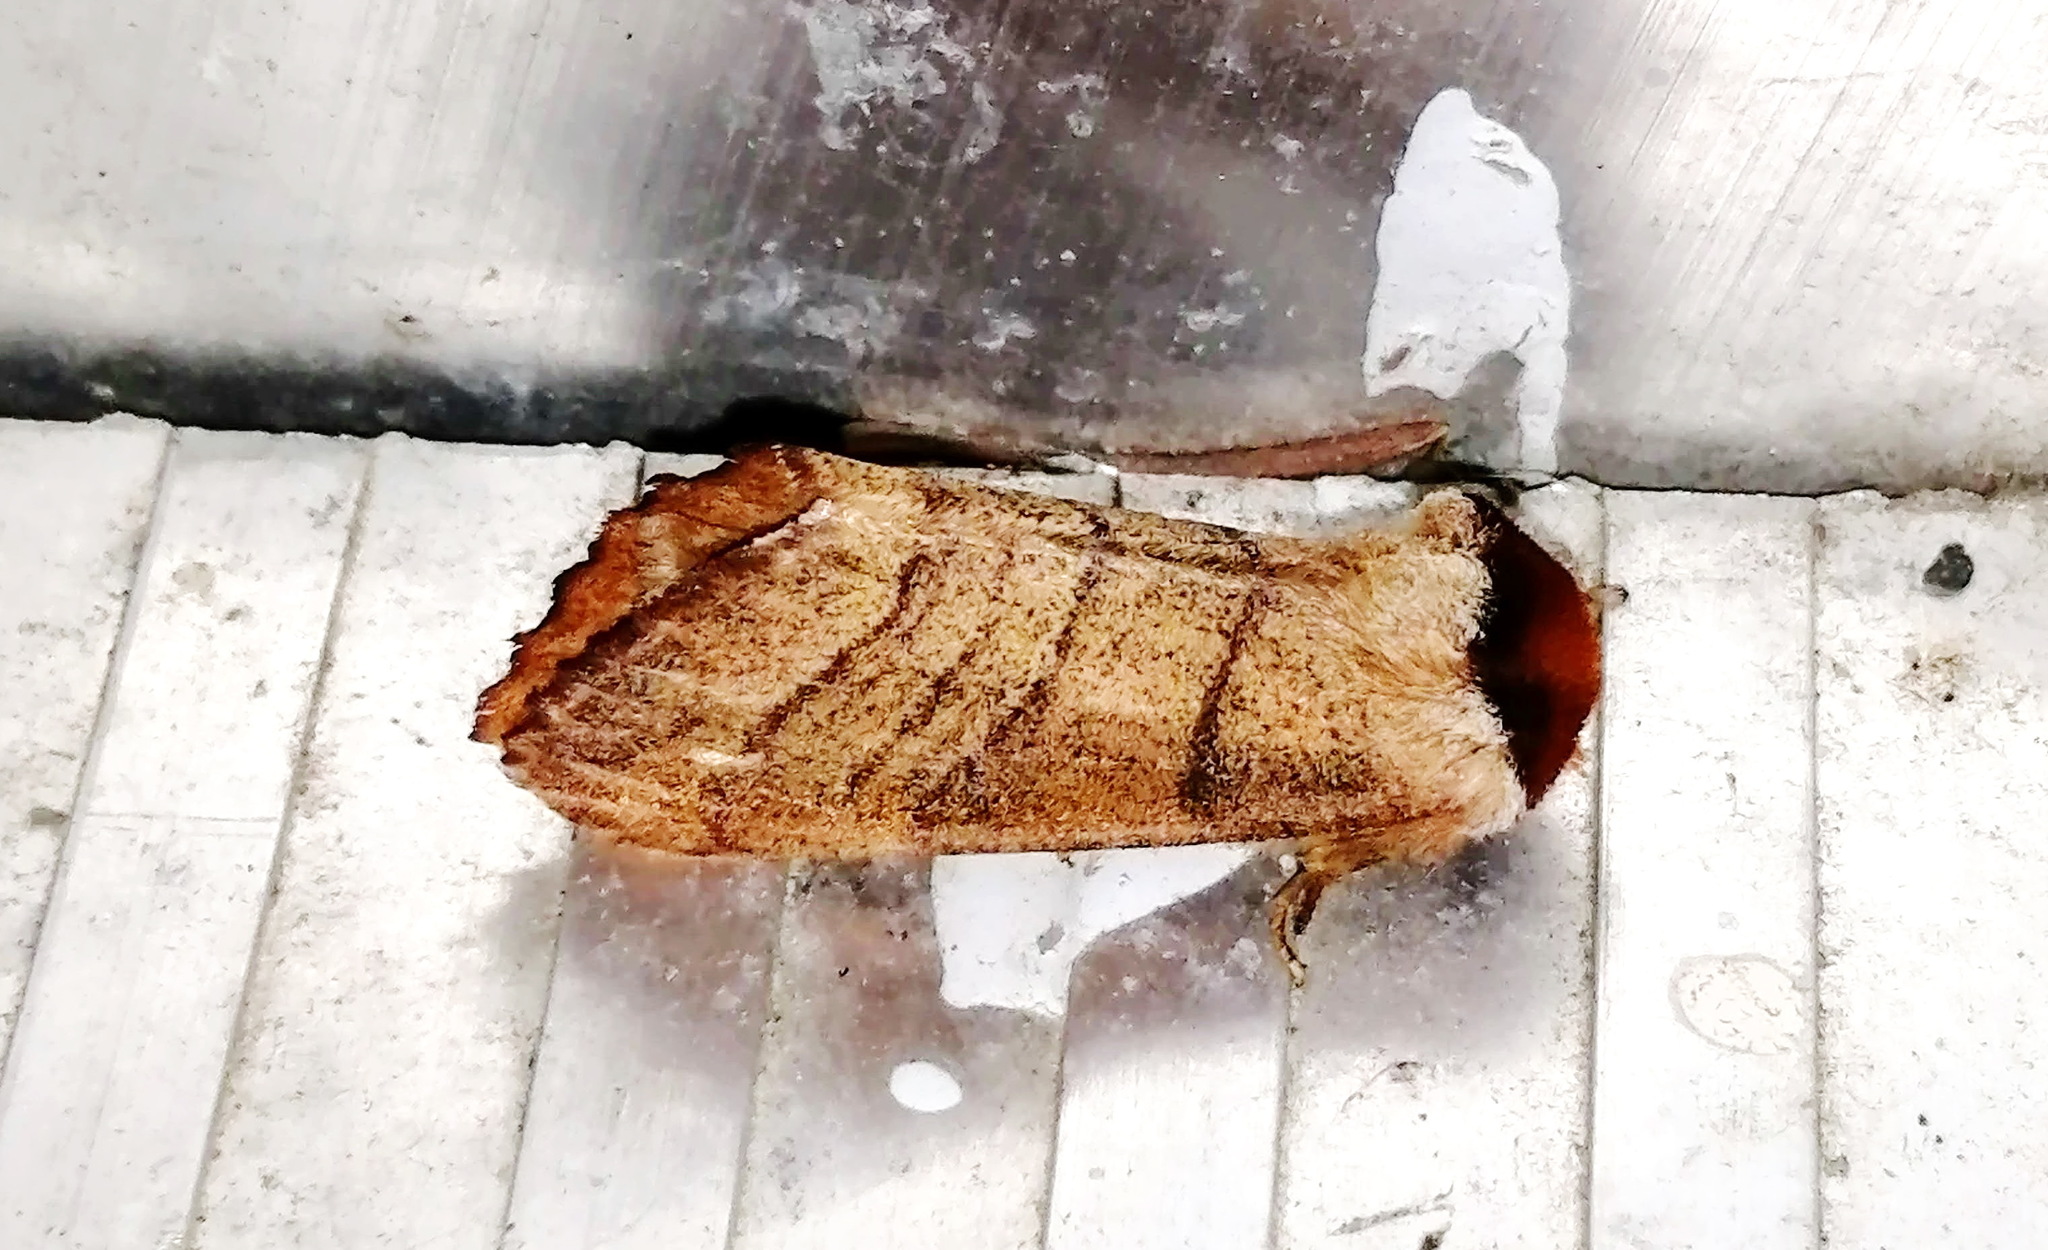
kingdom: Animalia
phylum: Arthropoda
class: Insecta
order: Lepidoptera
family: Notodontidae
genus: Datana
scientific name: Datana ministra
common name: Yellow-necked caterpillar moth
